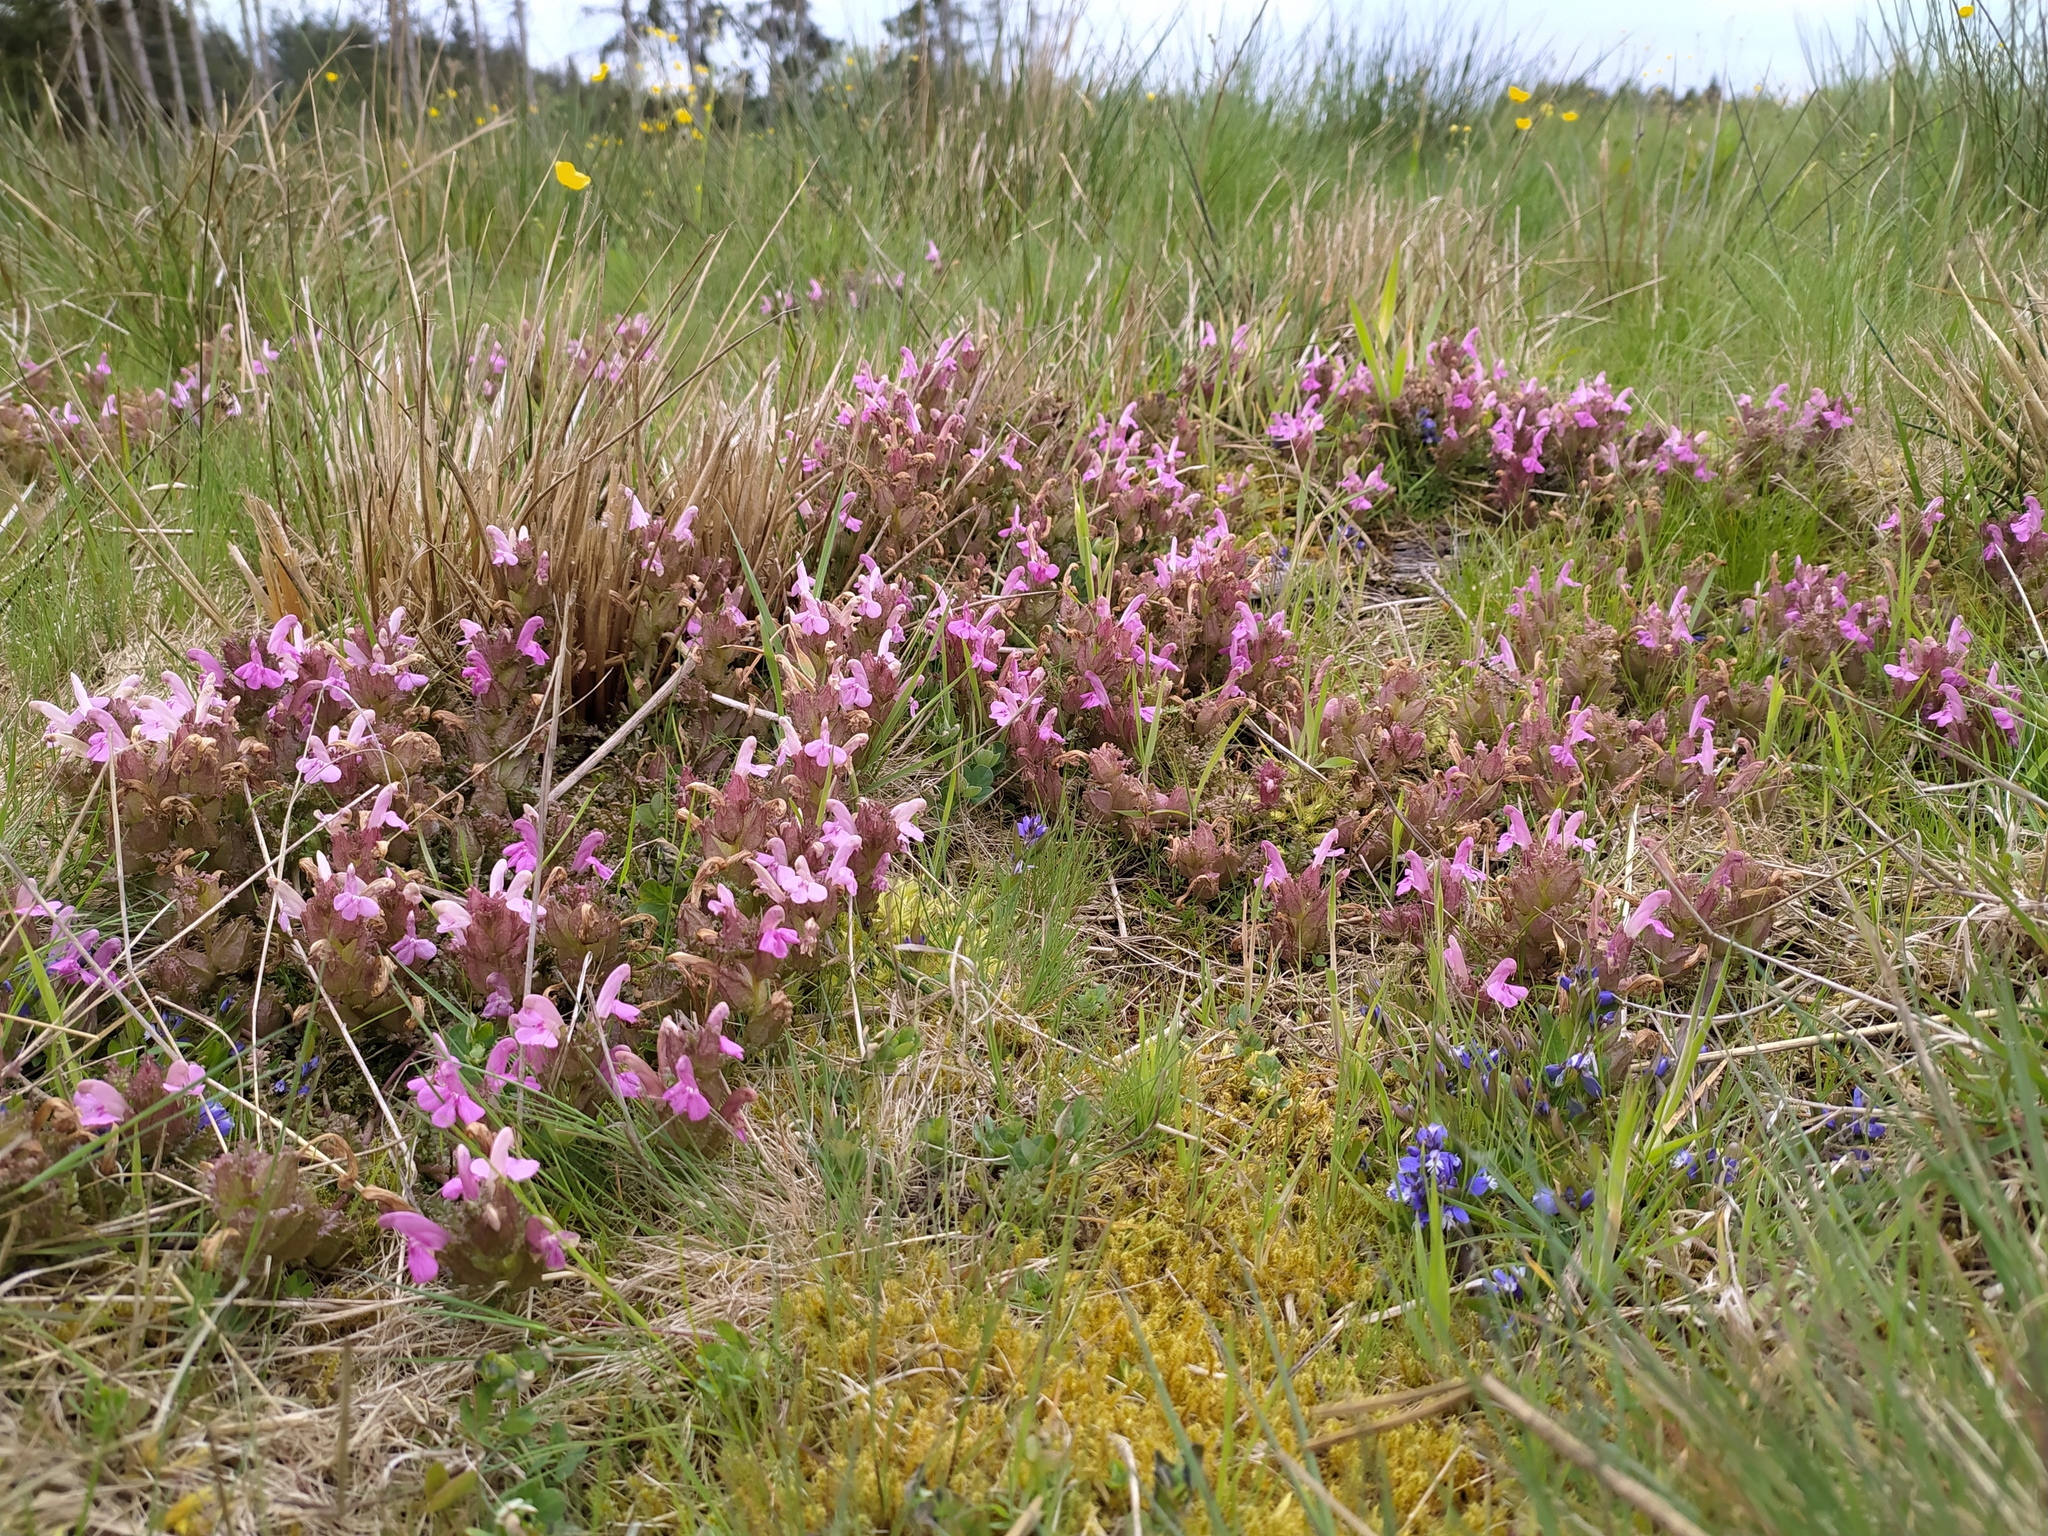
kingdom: Plantae
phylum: Tracheophyta
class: Magnoliopsida
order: Lamiales
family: Orobanchaceae
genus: Pedicularis
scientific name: Pedicularis sylvatica
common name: Lousewort
